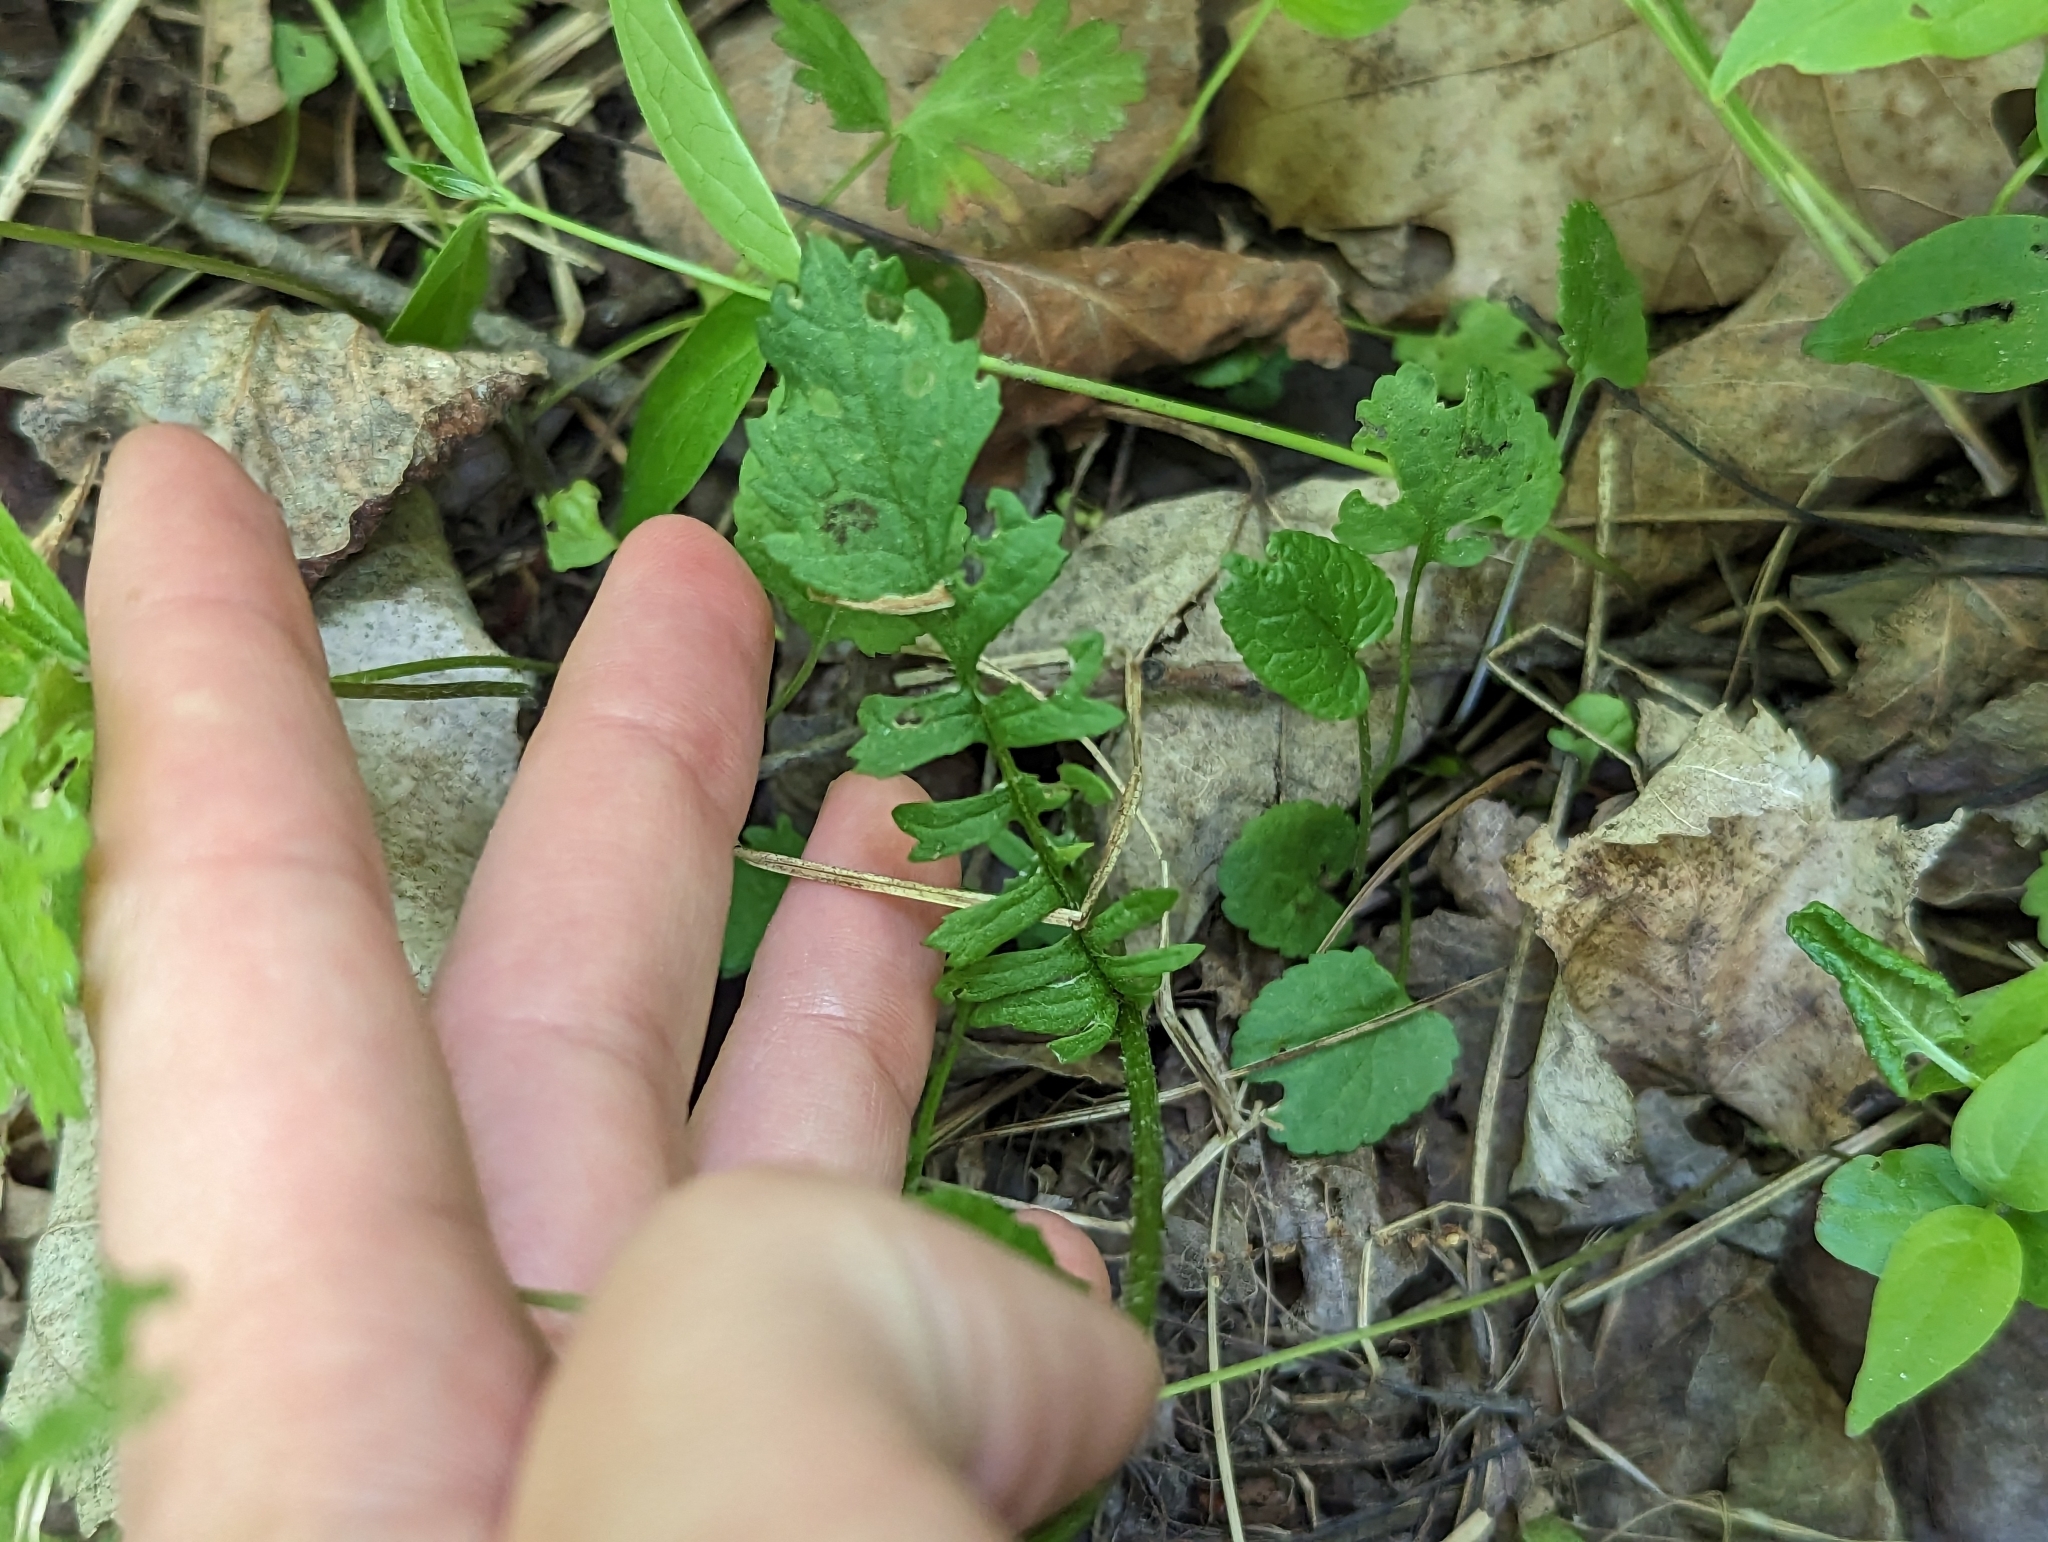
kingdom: Plantae
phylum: Tracheophyta
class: Magnoliopsida
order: Asterales
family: Asteraceae
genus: Packera
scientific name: Packera aurea
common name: Golden groundsel
